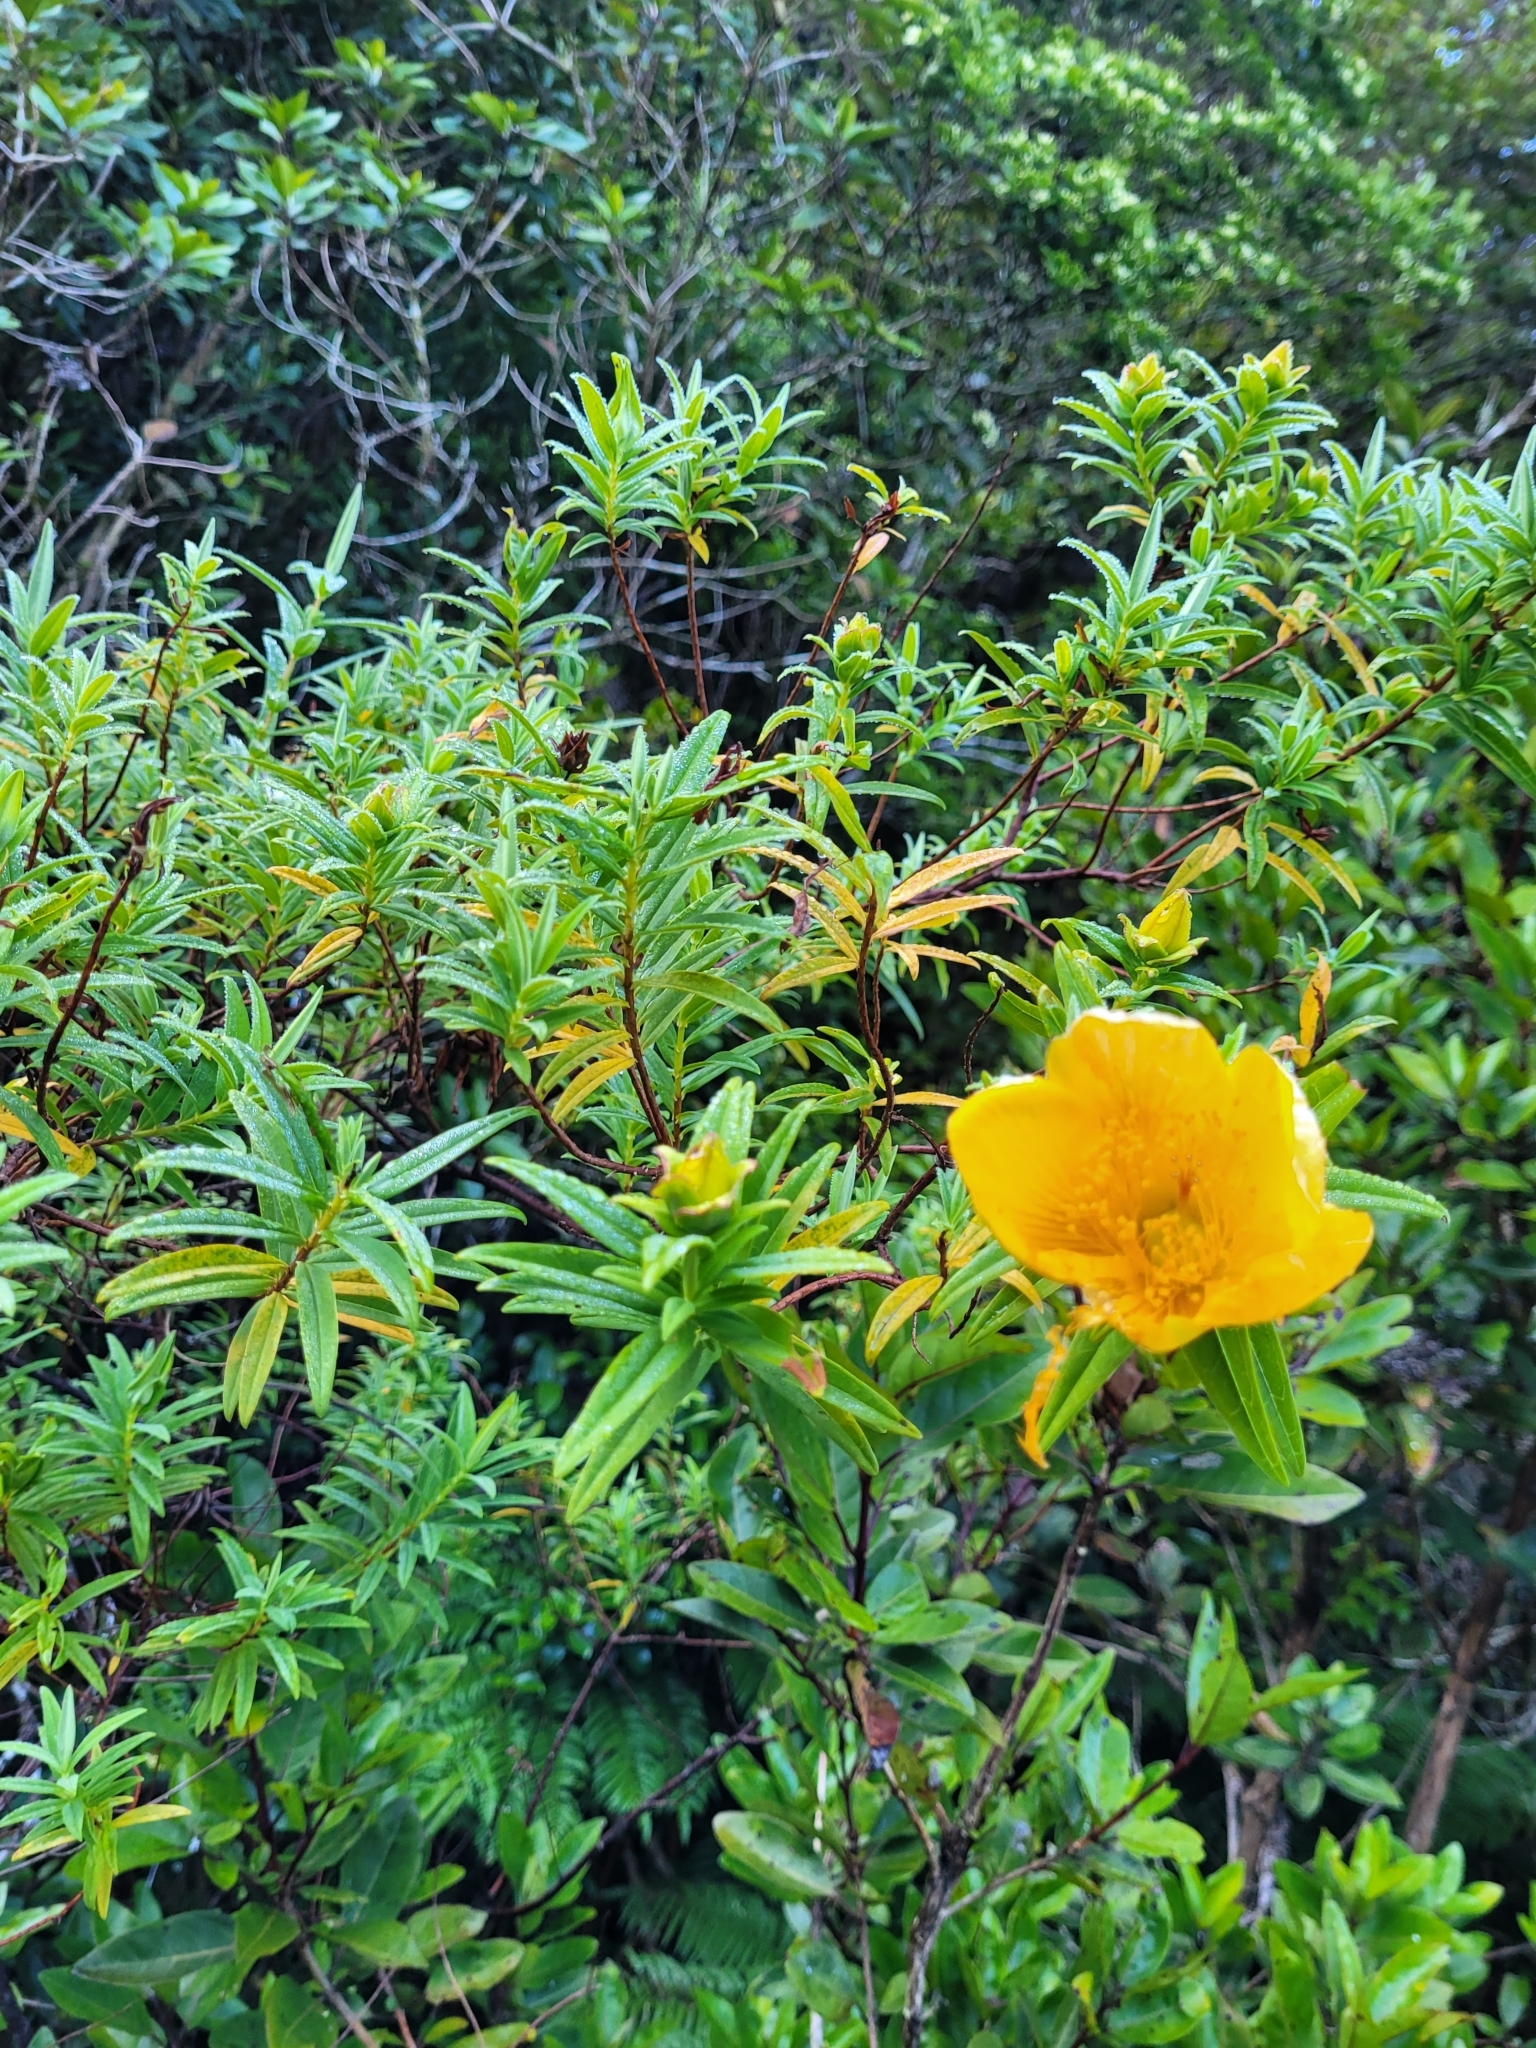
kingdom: Plantae
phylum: Tracheophyta
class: Magnoliopsida
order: Malpighiales
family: Hypericaceae
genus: Hypericum
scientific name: Hypericum lanceolatum
